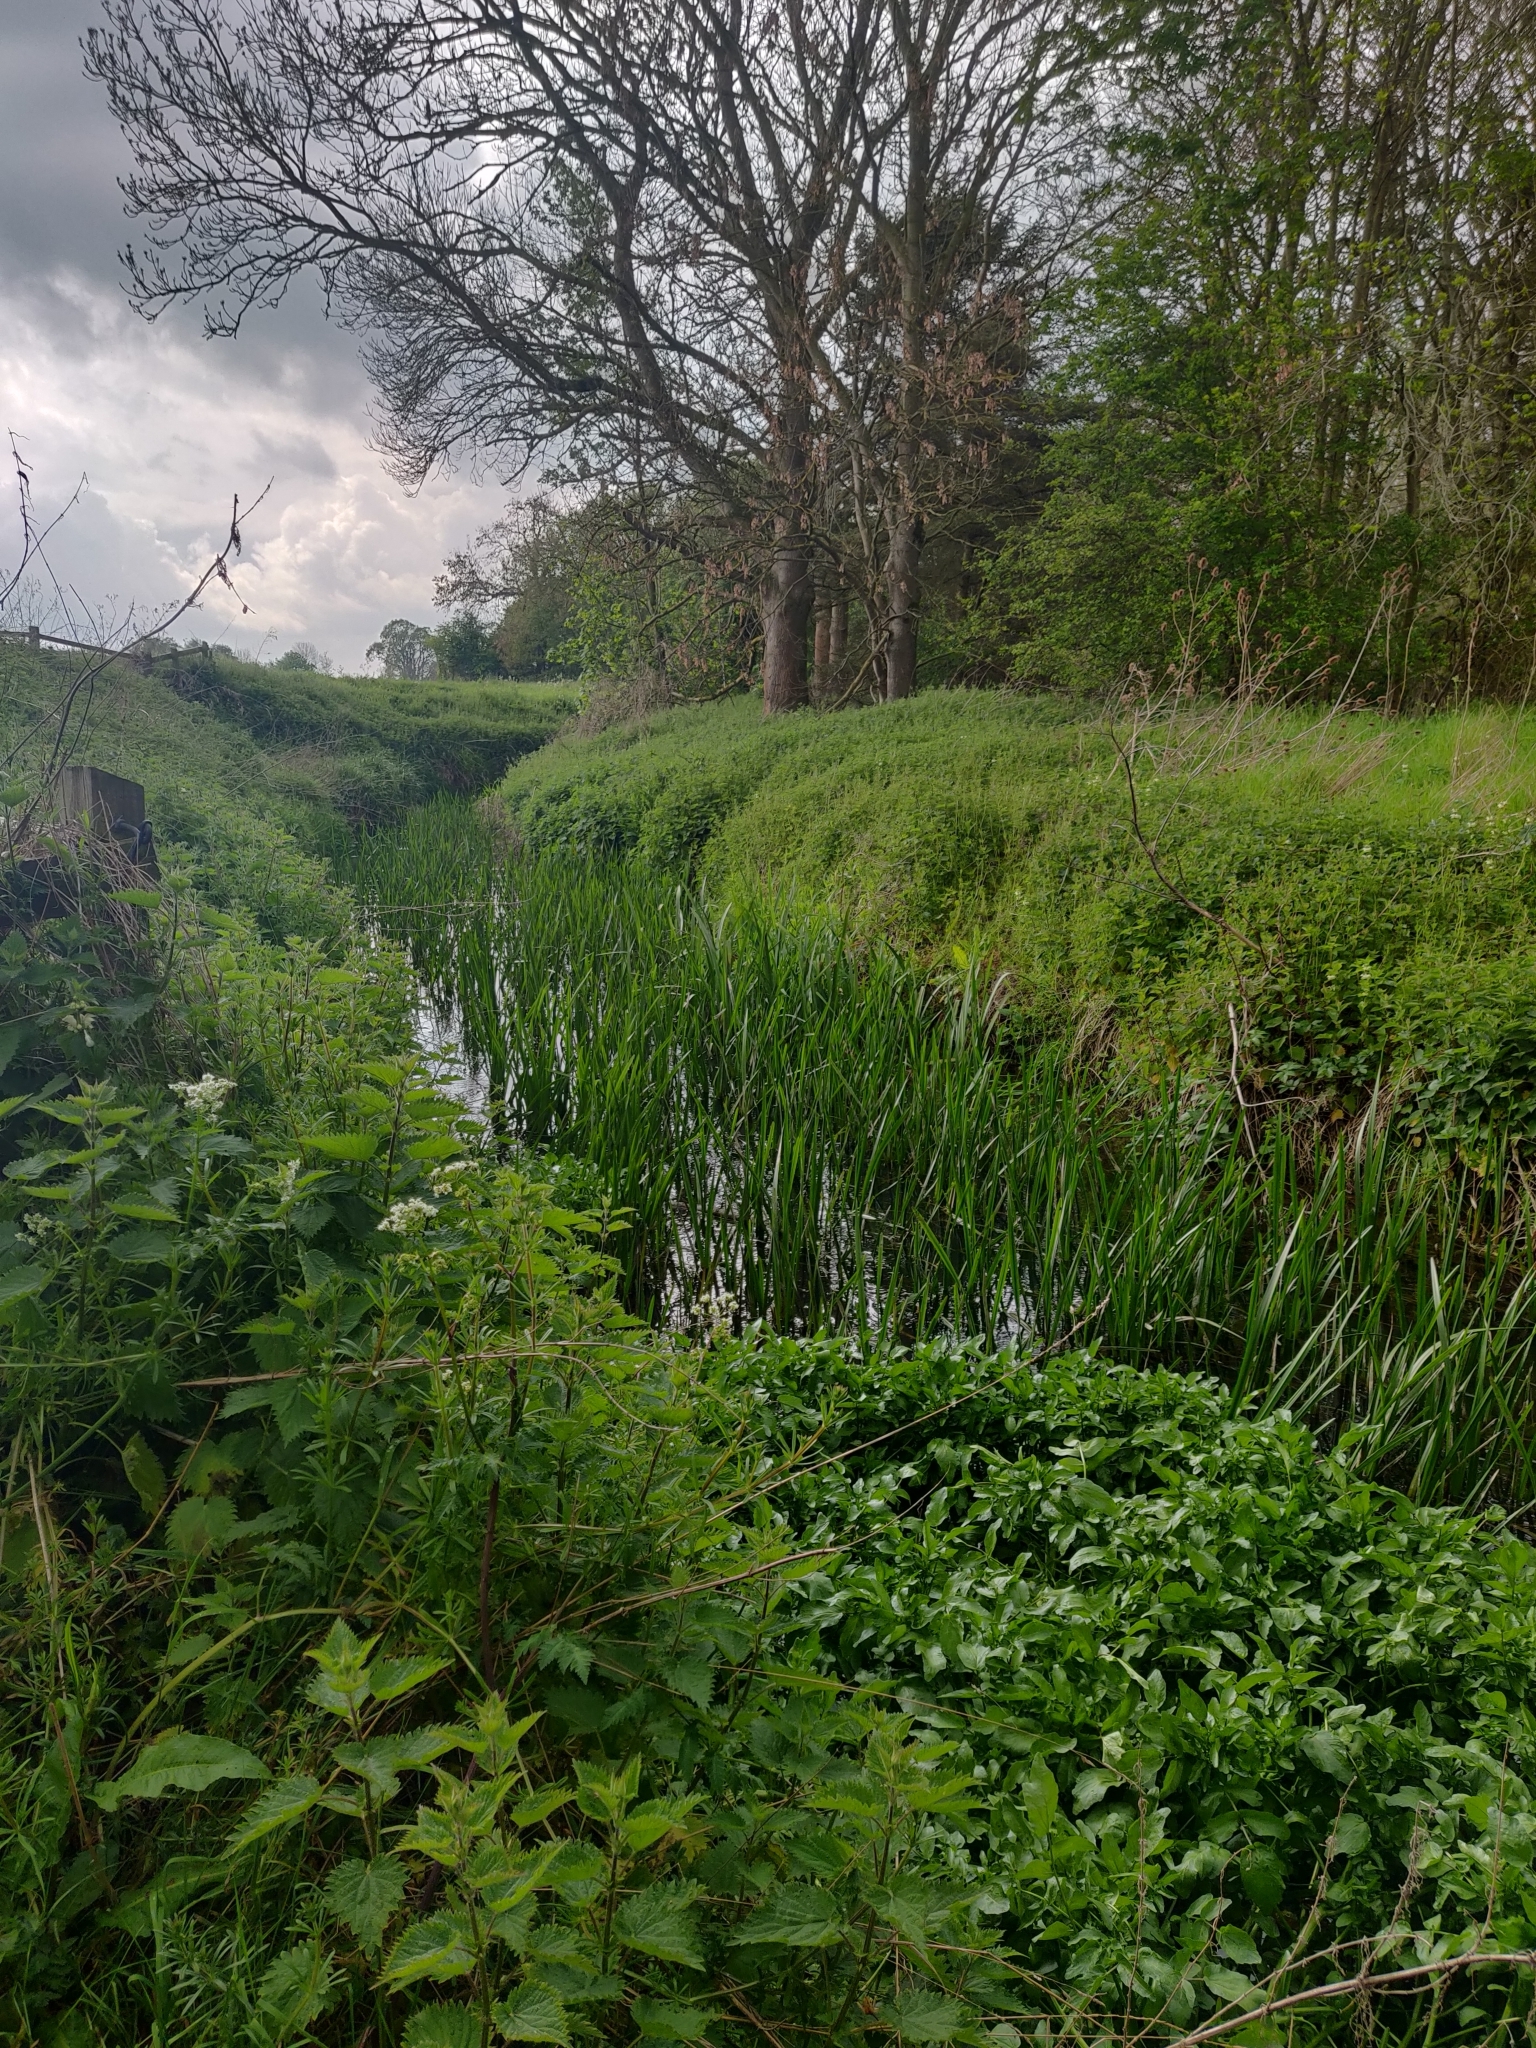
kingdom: Plantae
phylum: Tracheophyta
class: Liliopsida
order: Poales
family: Poaceae
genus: Phragmites
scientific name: Phragmites australis
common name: Common reed
